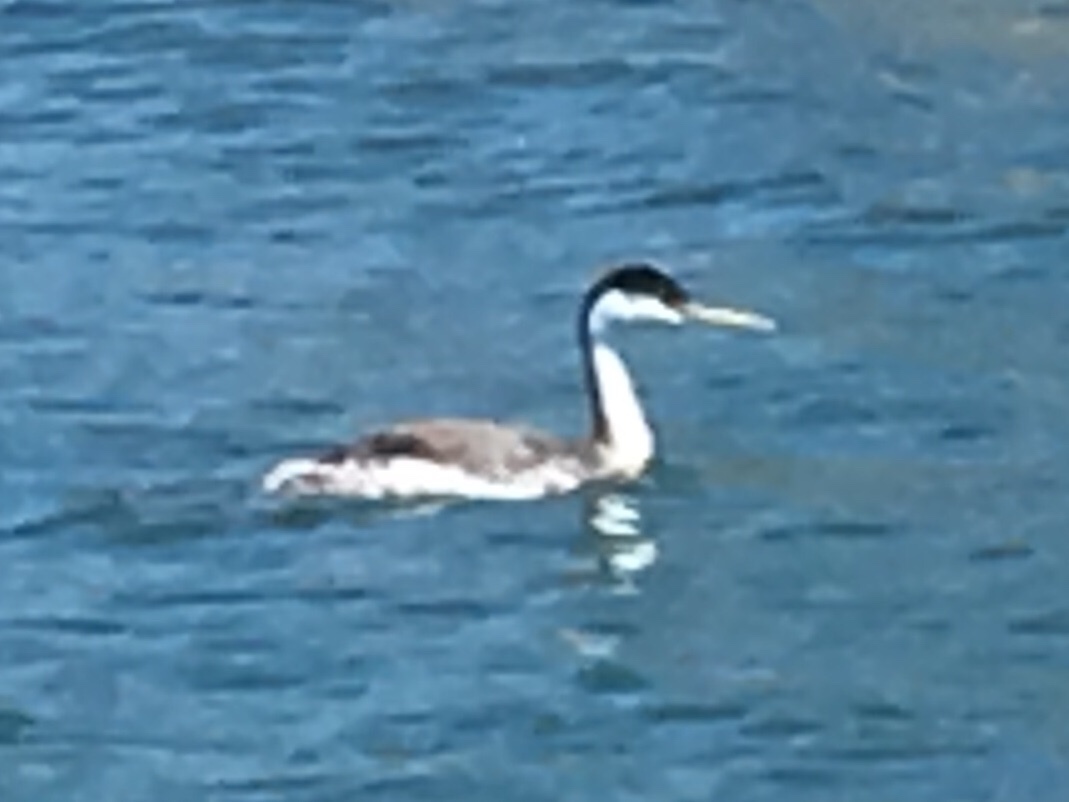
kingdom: Animalia
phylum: Chordata
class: Aves
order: Podicipediformes
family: Podicipedidae
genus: Aechmophorus
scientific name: Aechmophorus occidentalis
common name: Western grebe
